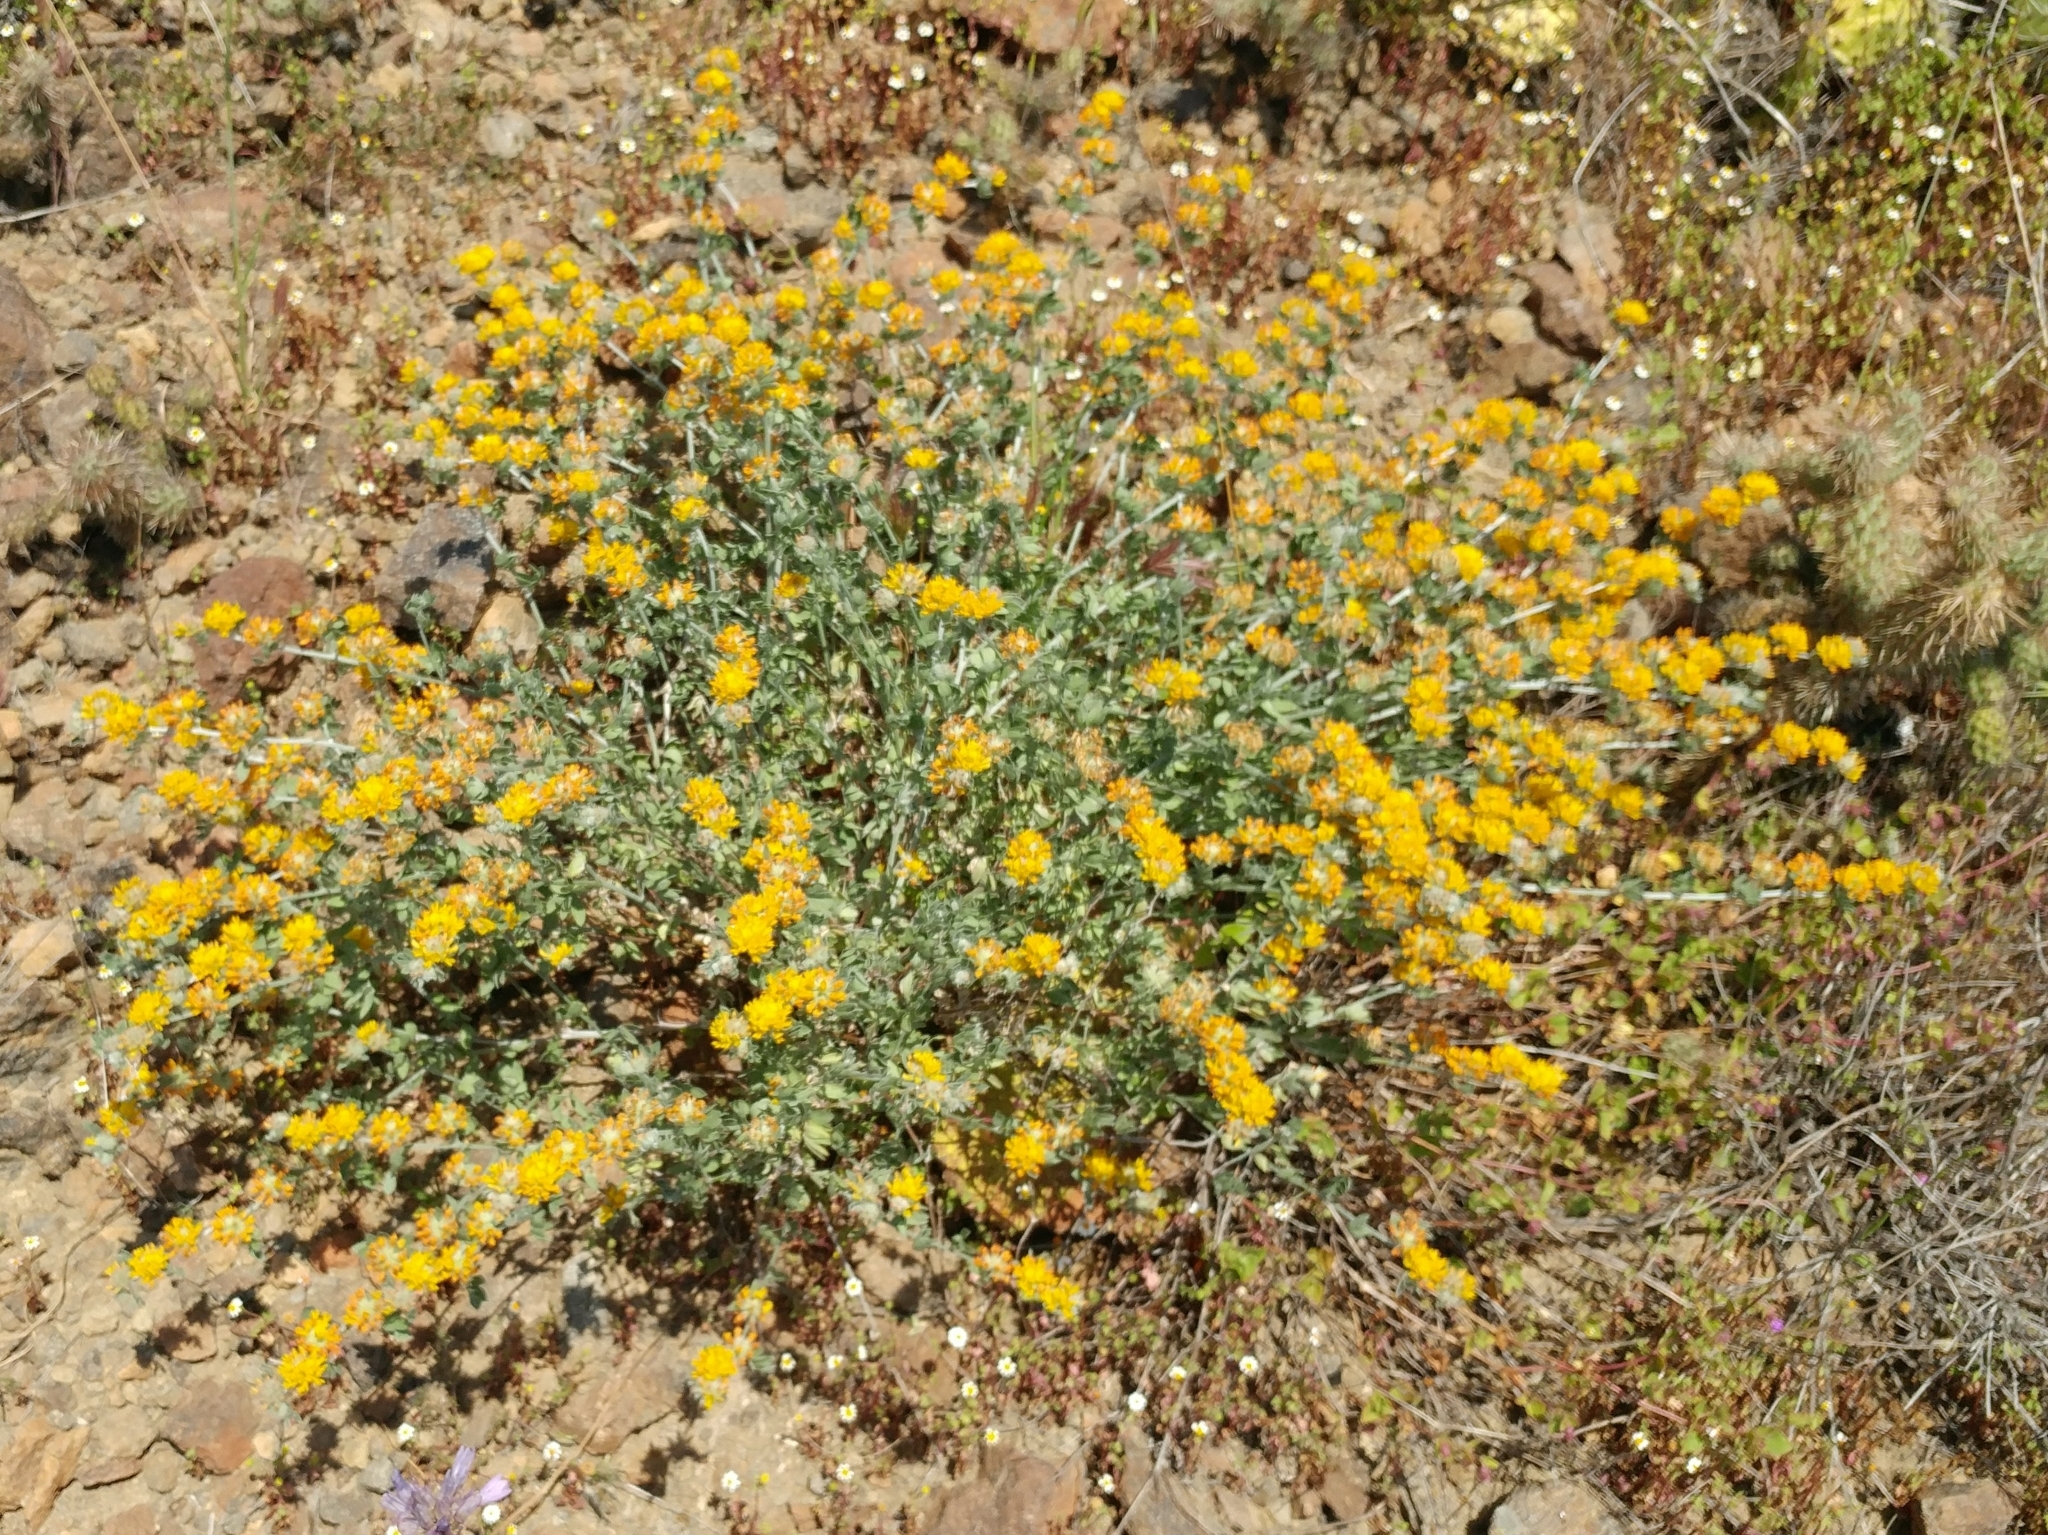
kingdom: Plantae
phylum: Tracheophyta
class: Magnoliopsida
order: Fabales
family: Fabaceae
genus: Acmispon
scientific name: Acmispon argophyllus
